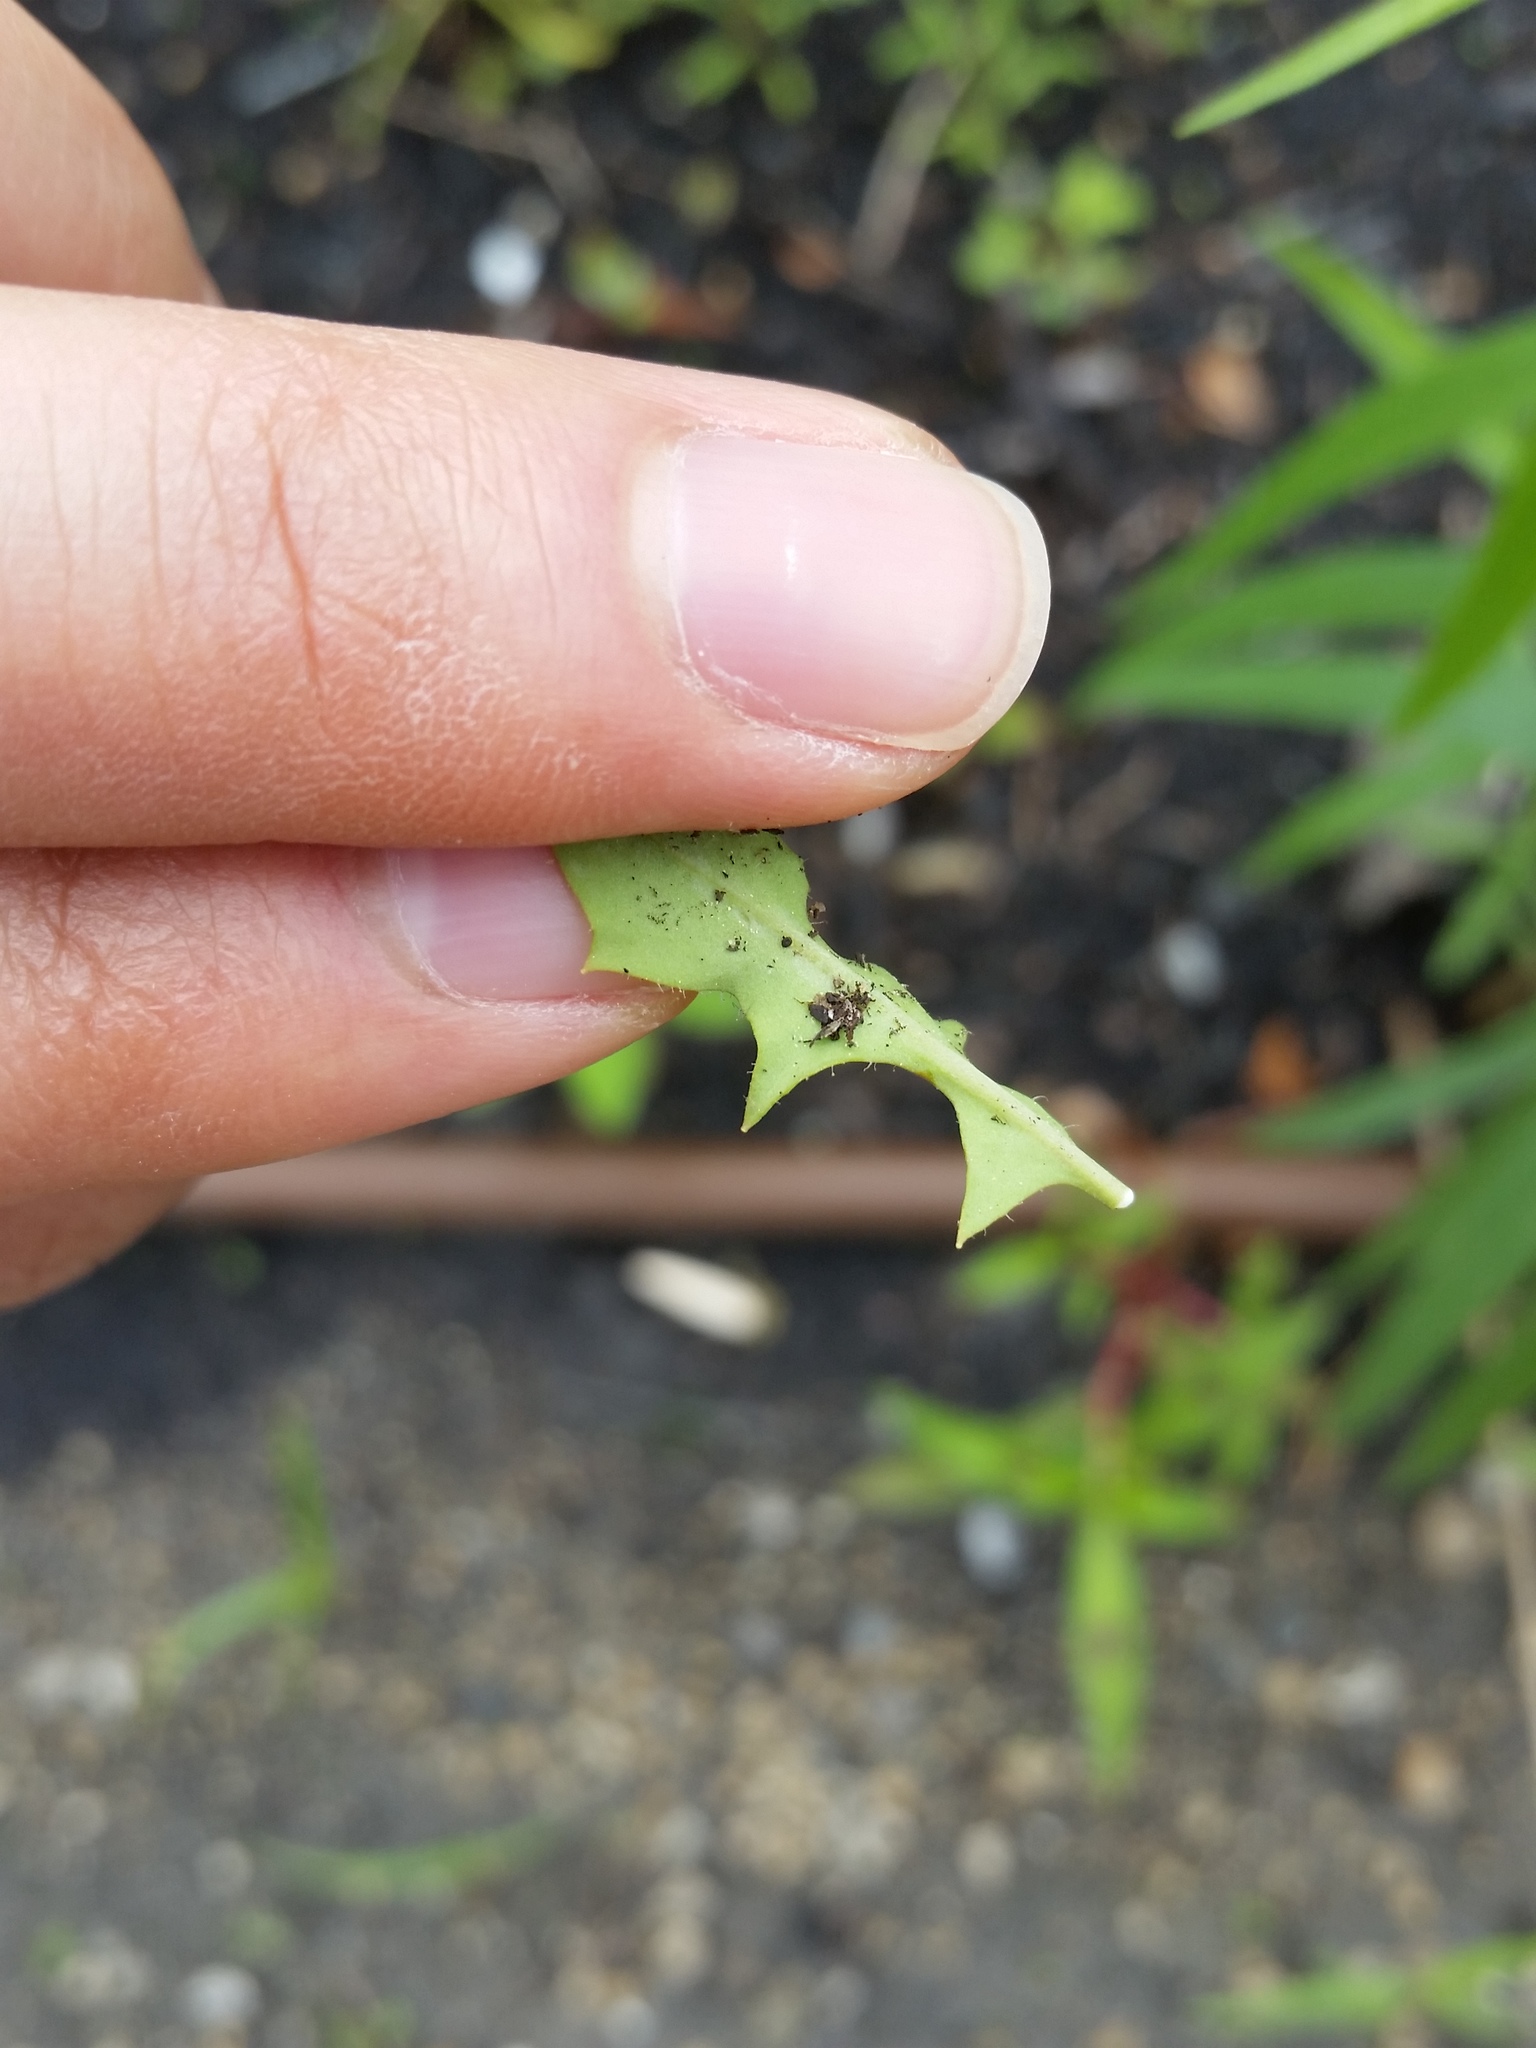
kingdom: Plantae
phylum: Tracheophyta
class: Magnoliopsida
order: Asterales
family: Asteraceae
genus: Krigia
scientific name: Krigia virginica
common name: Virginia dwarf-dandelion
